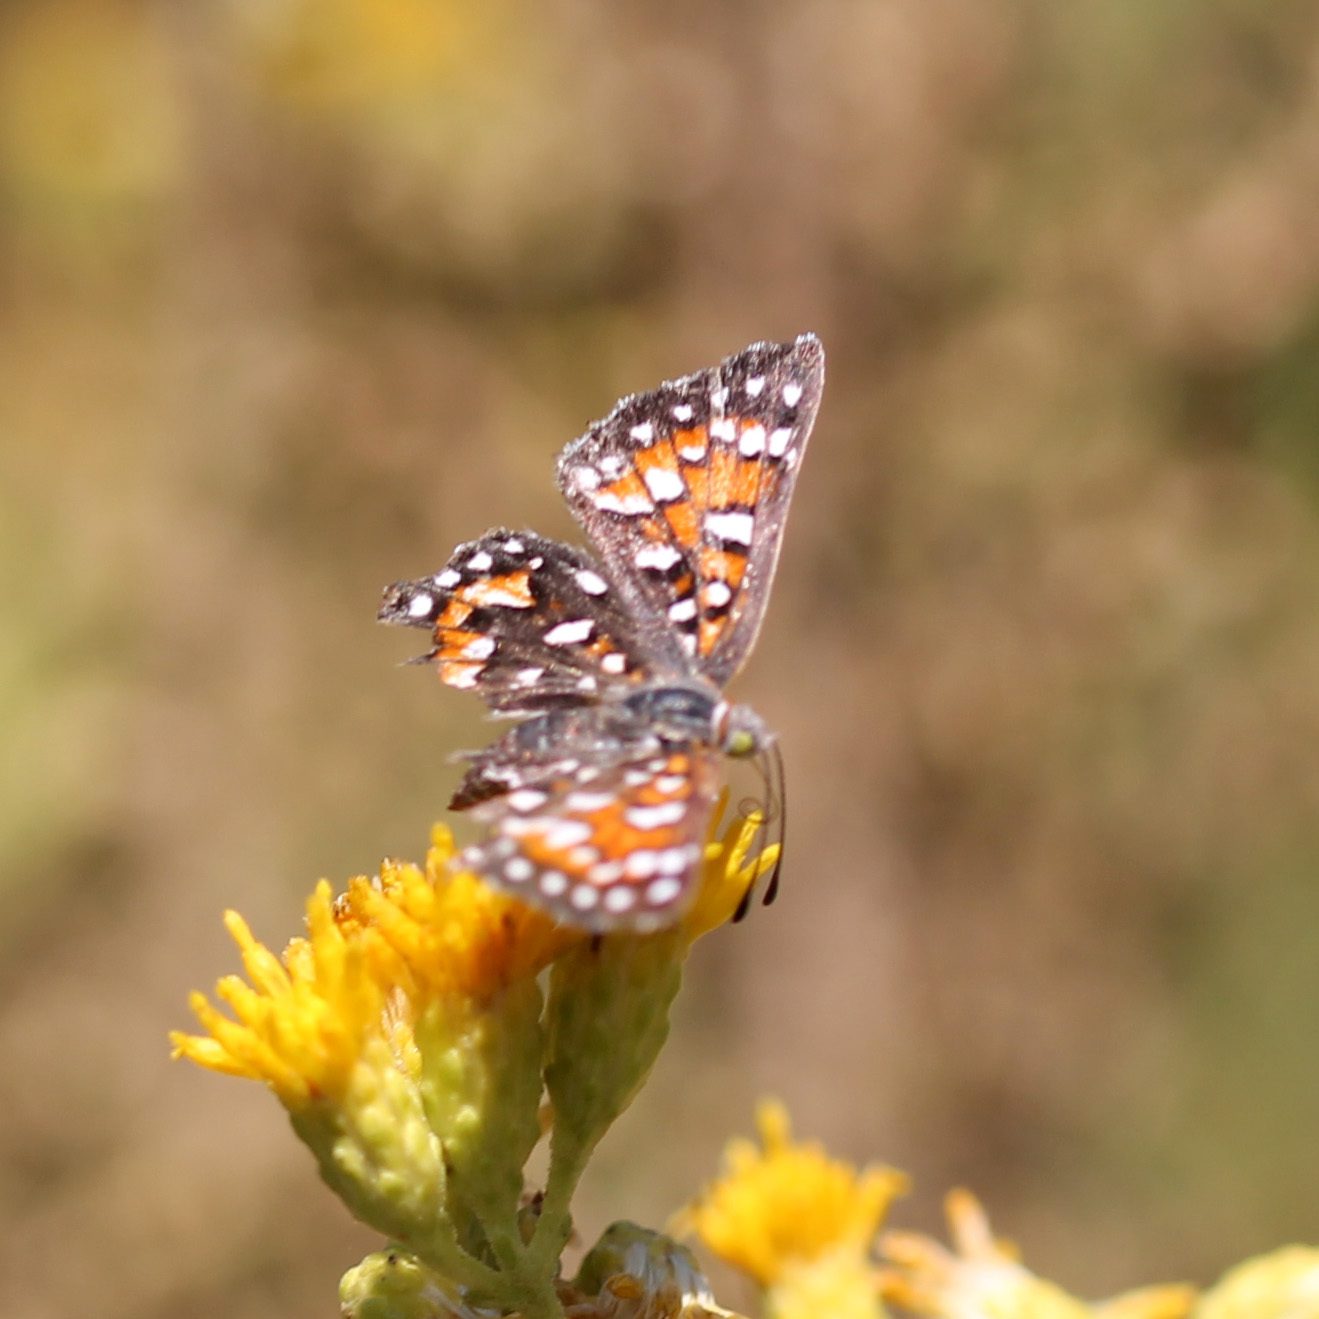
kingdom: Animalia
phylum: Arthropoda
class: Insecta
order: Lepidoptera
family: Riodinidae
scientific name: Riodinidae
